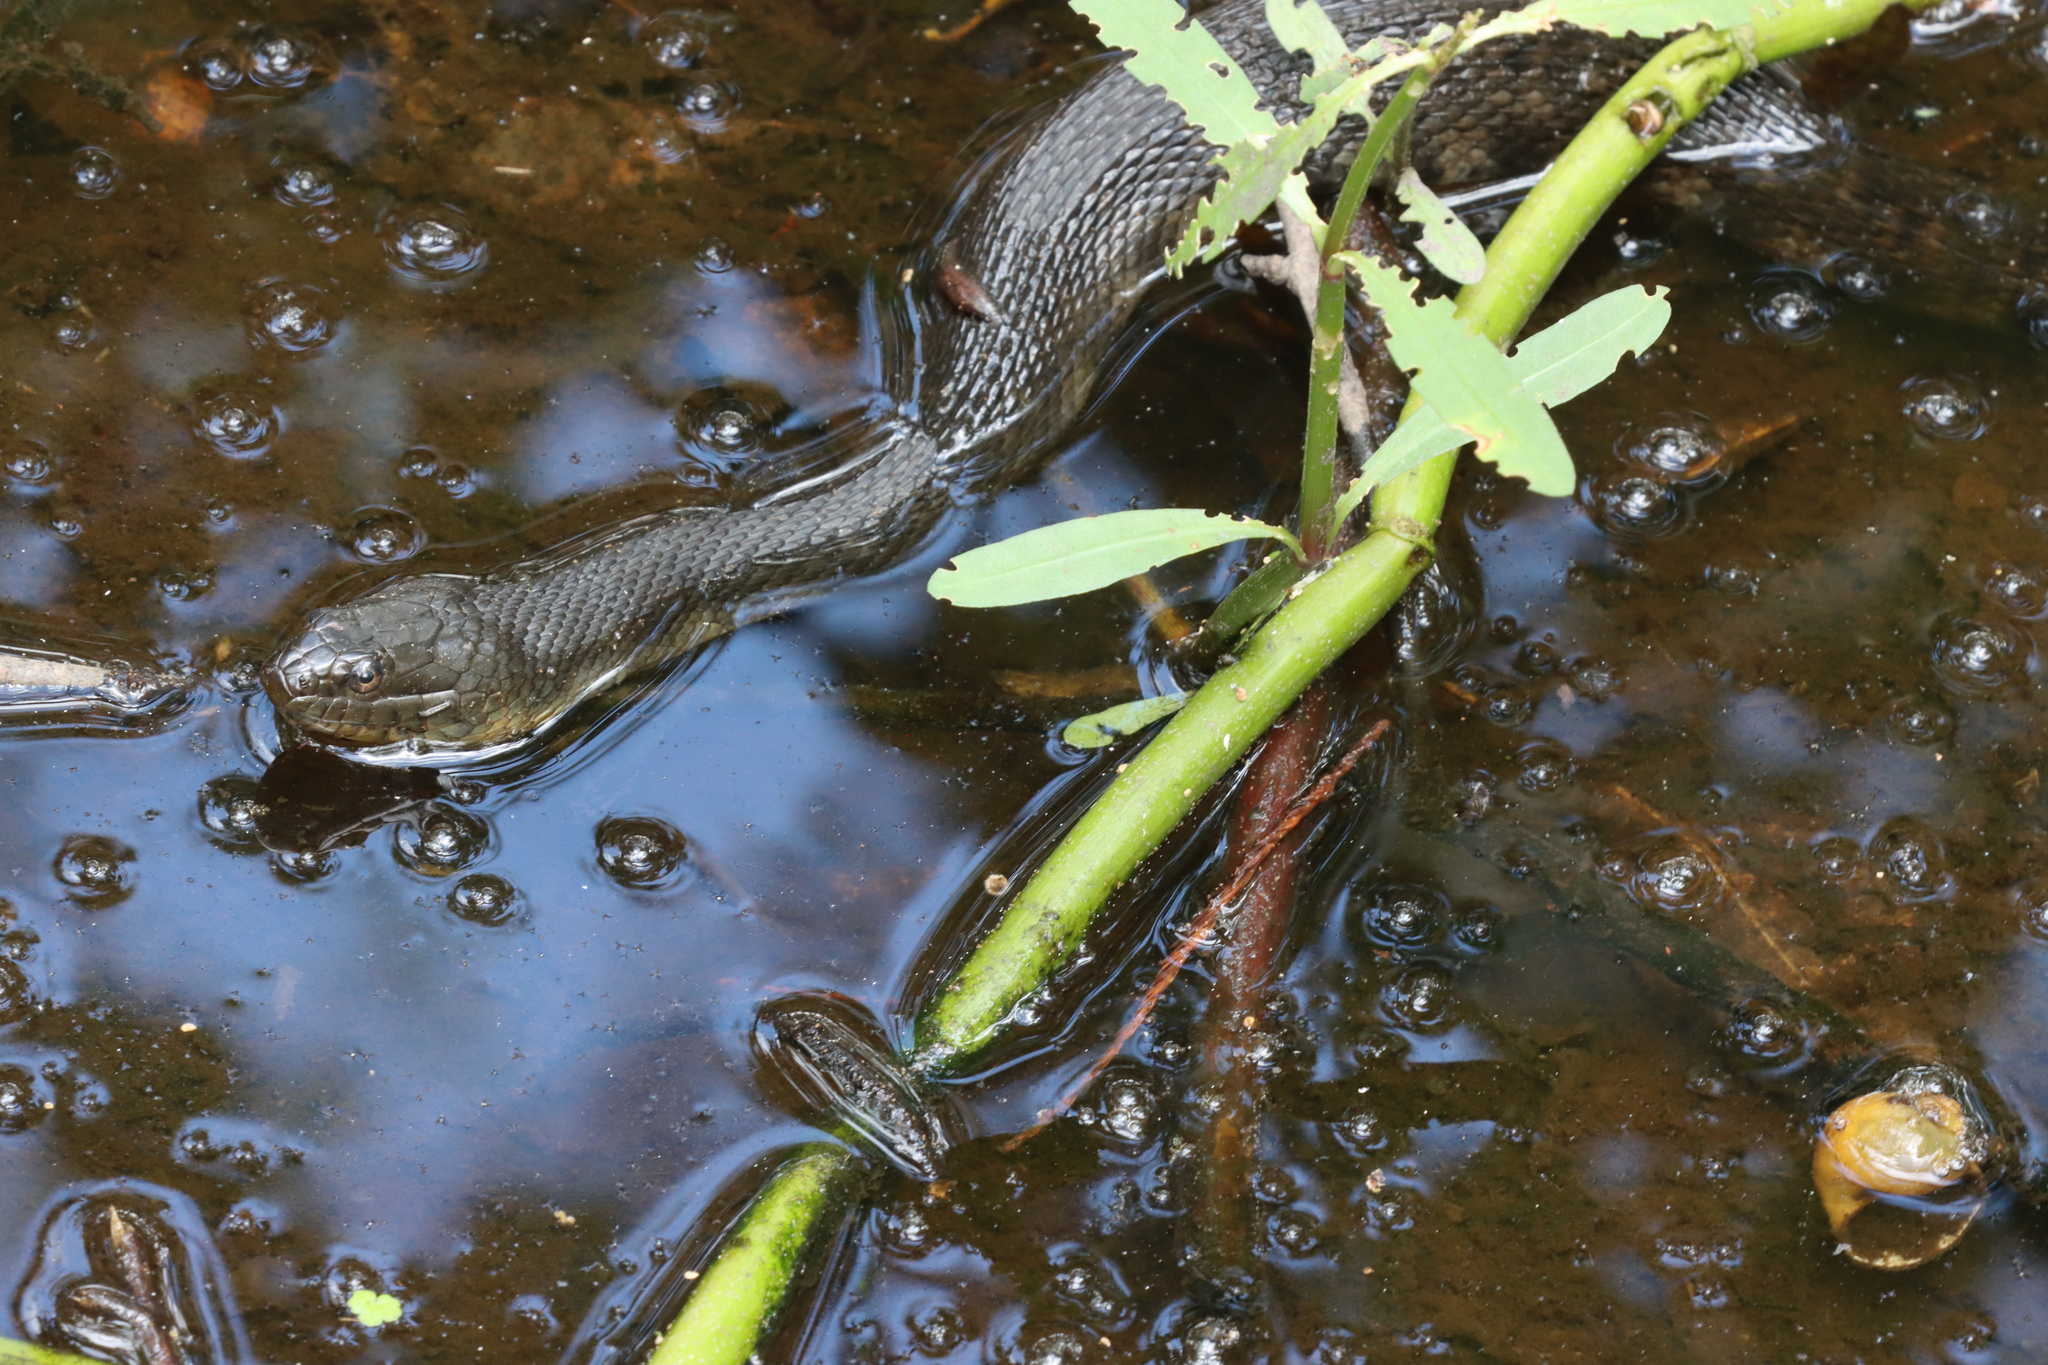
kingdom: Animalia
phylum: Chordata
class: Squamata
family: Colubridae
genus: Nerodia
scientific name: Nerodia cyclopion
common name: Mississippi green water snake
